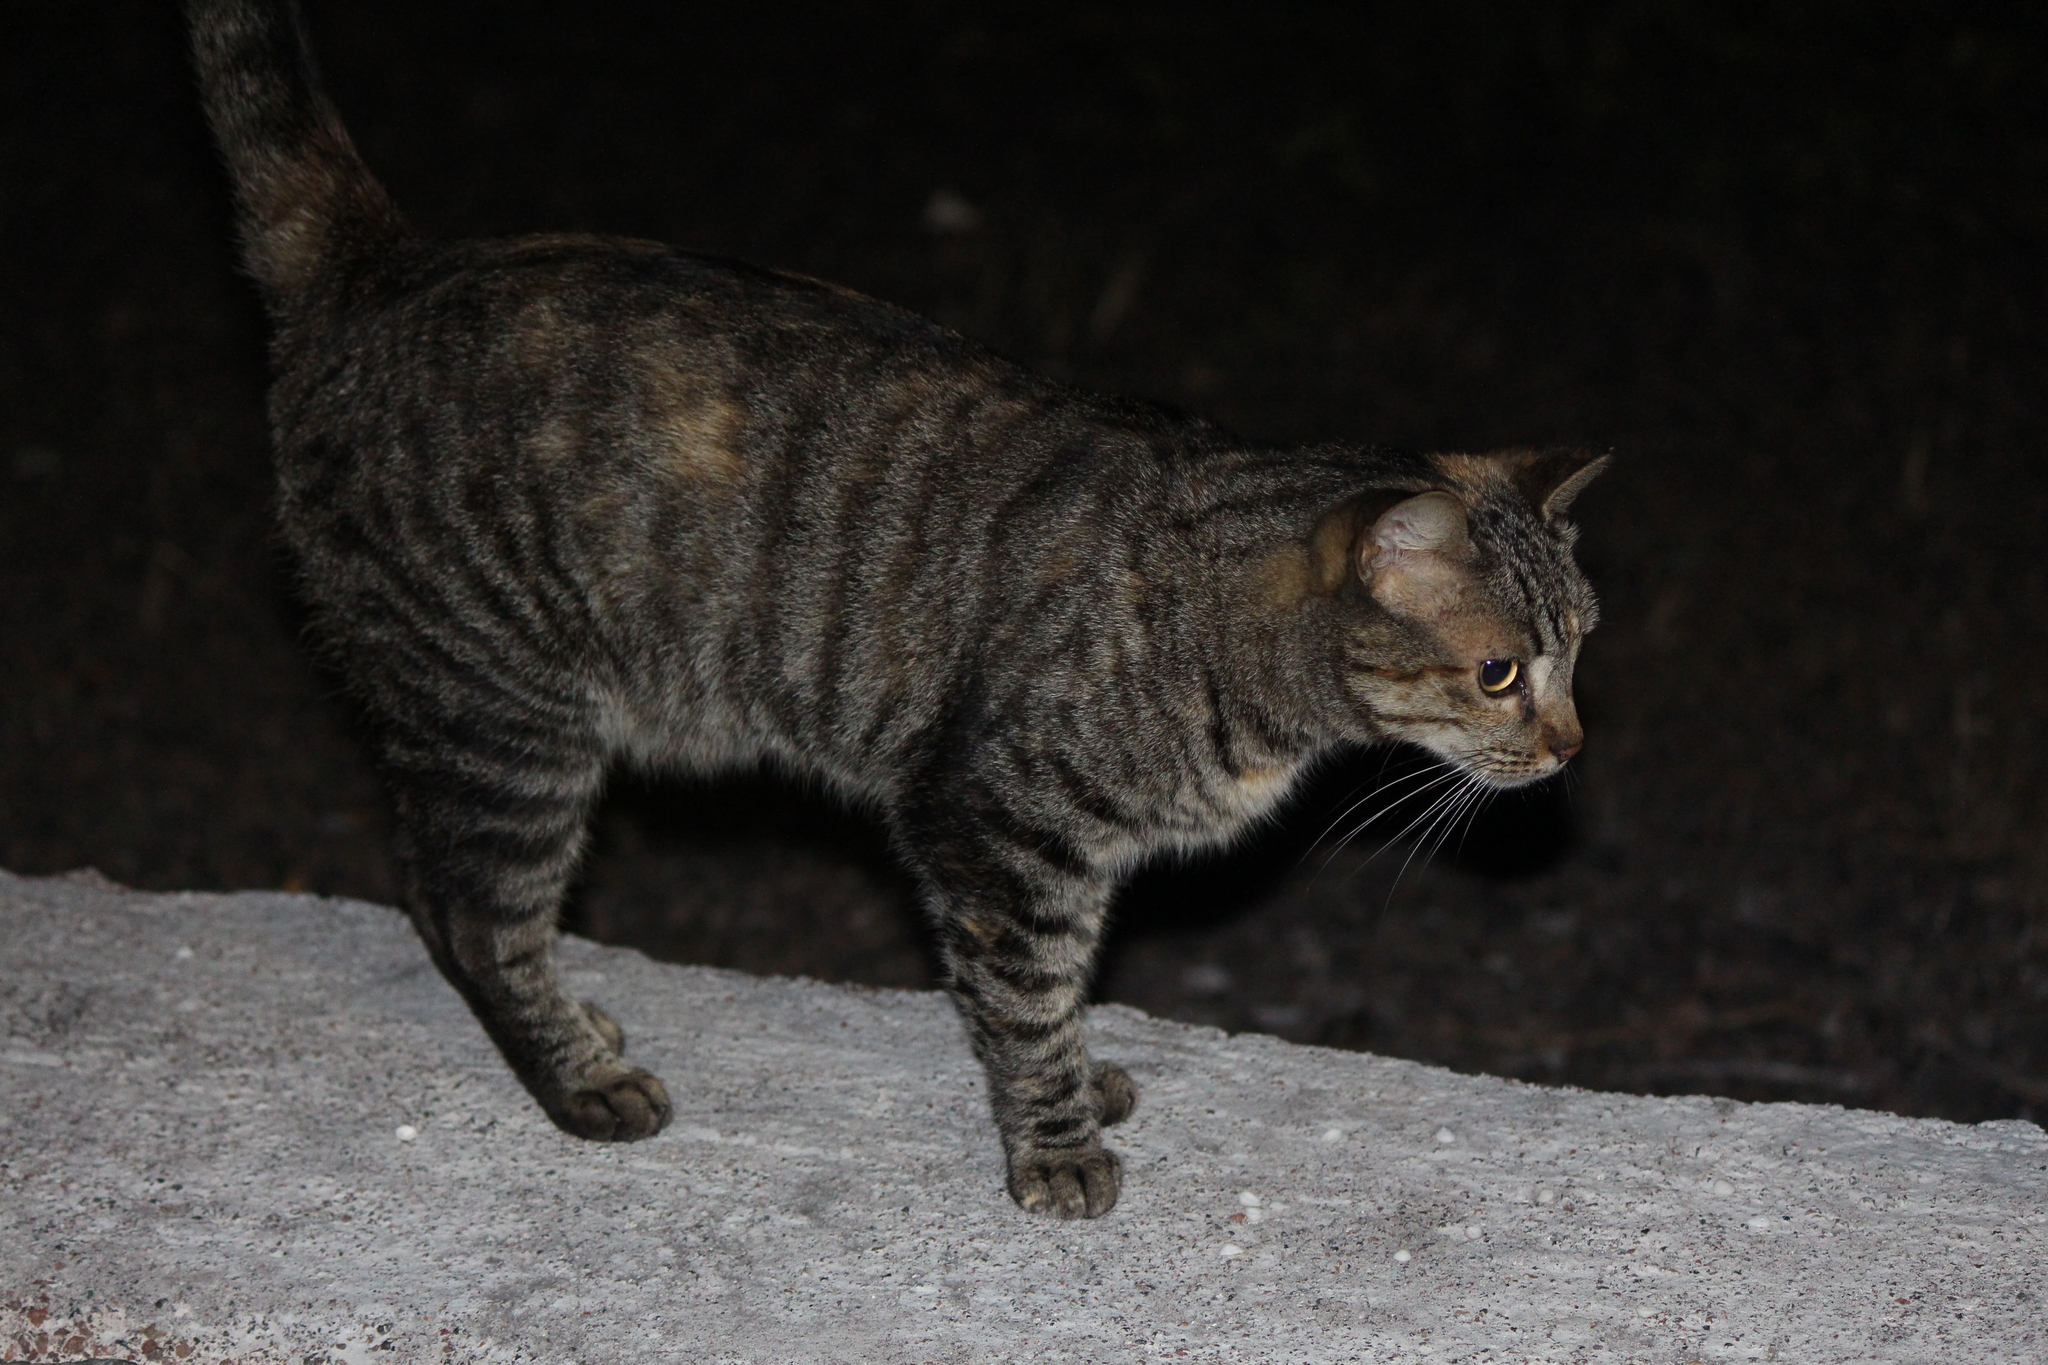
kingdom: Animalia
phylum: Chordata
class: Mammalia
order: Carnivora
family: Felidae
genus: Felis
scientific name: Felis catus
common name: Domestic cat
